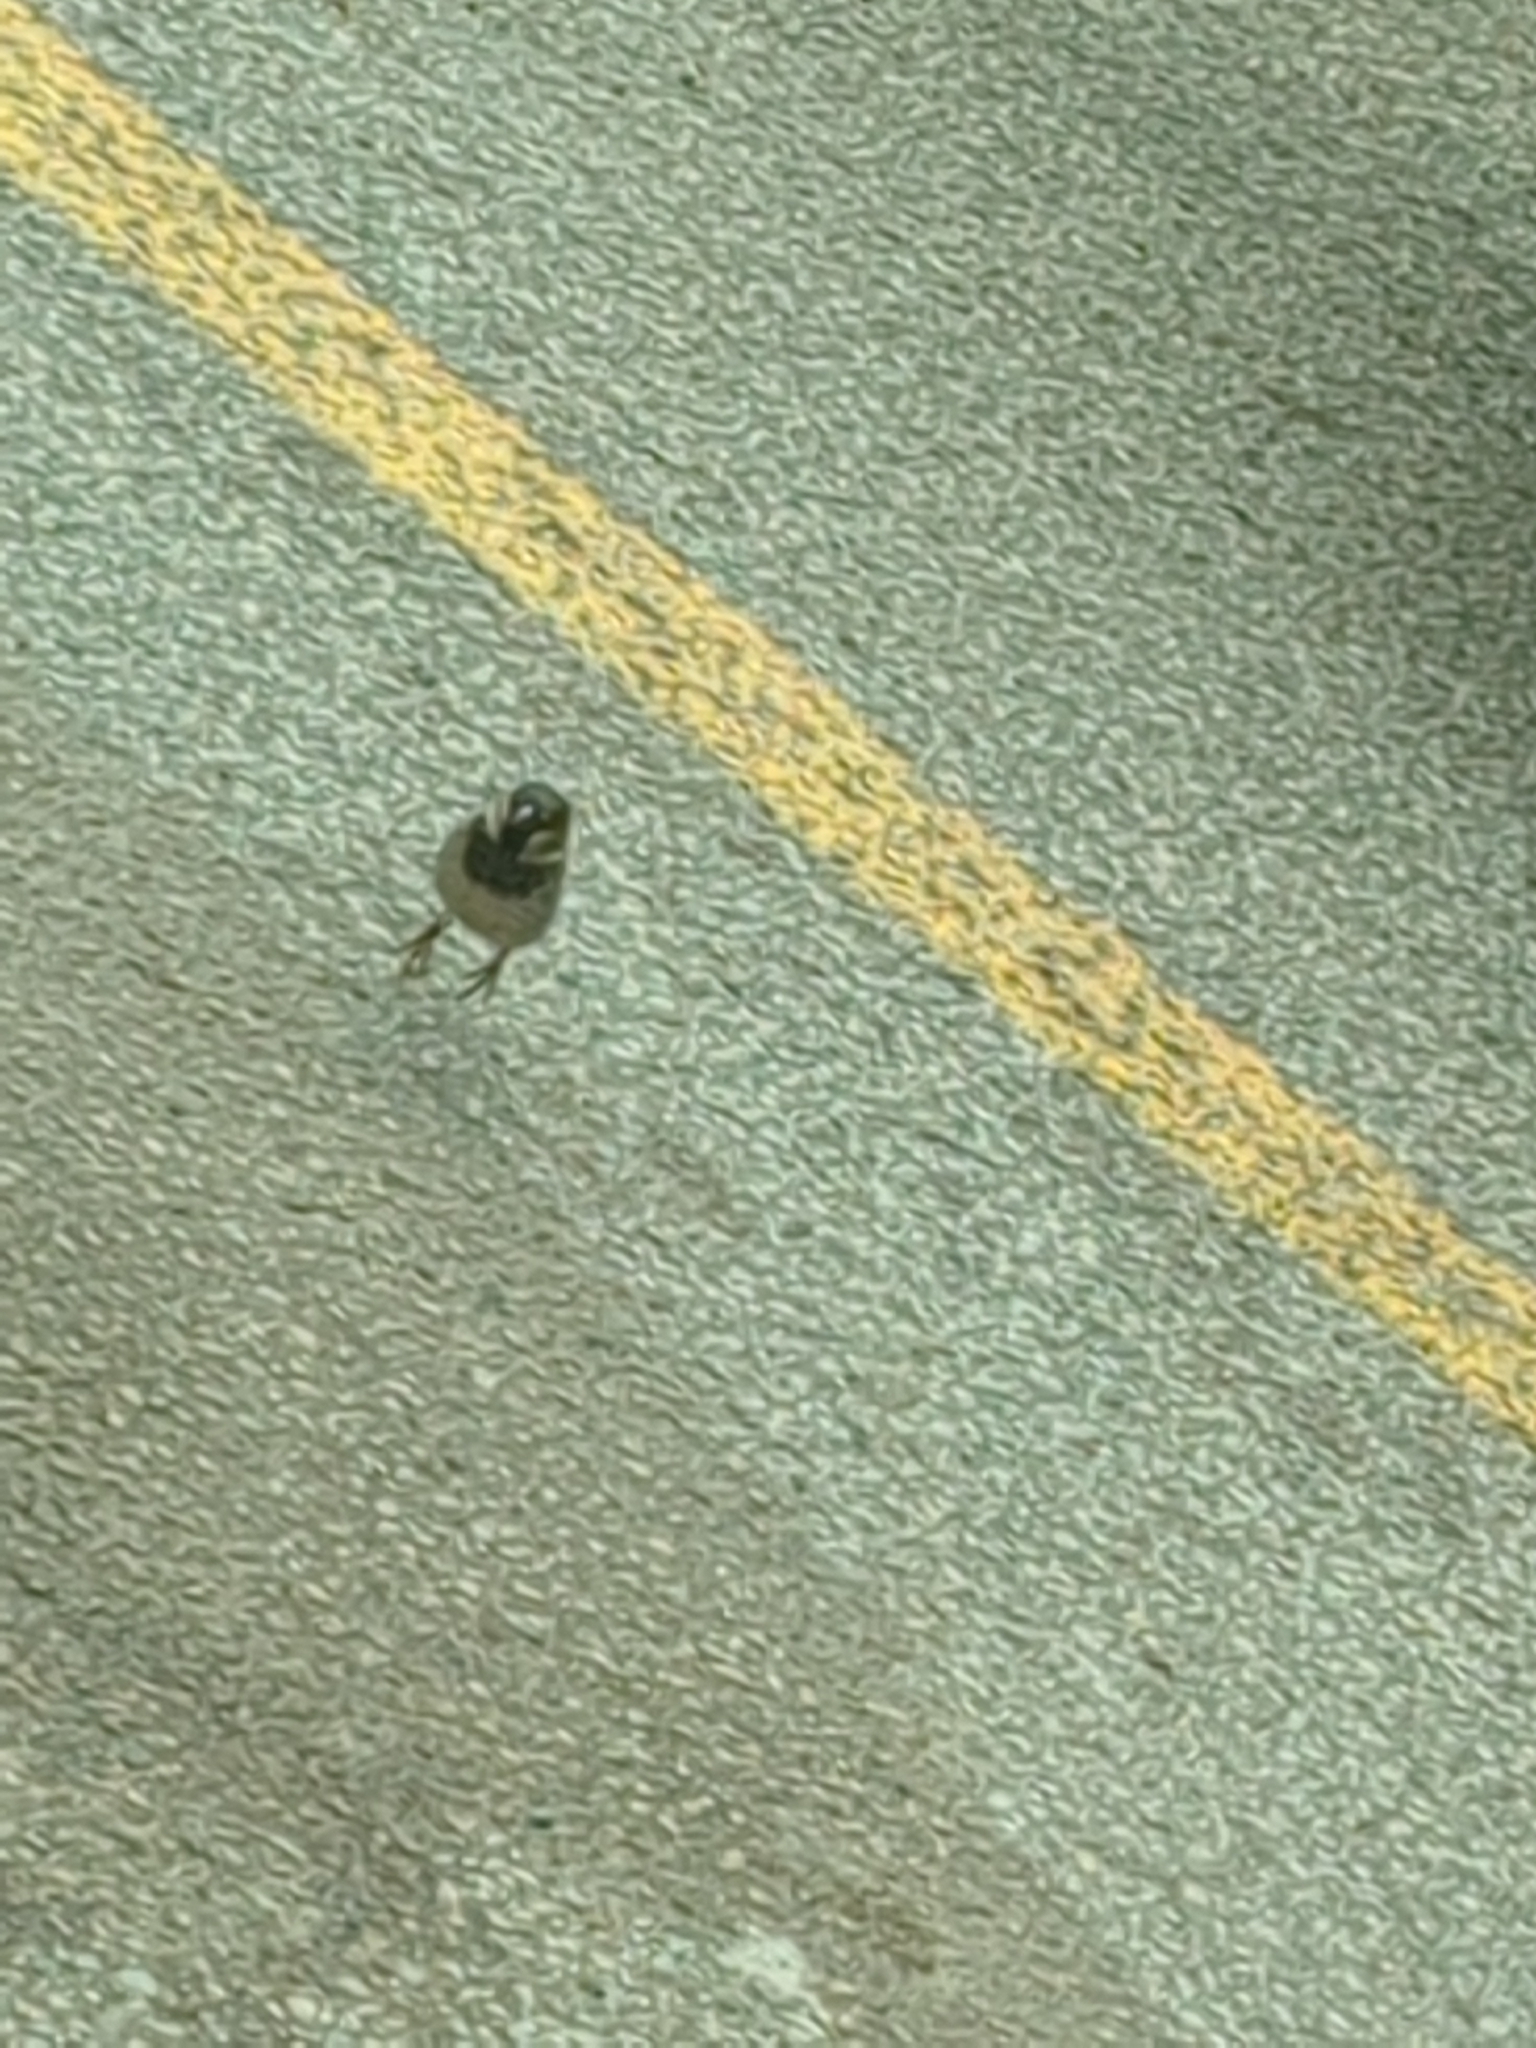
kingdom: Animalia
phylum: Chordata
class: Aves
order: Passeriformes
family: Passeridae
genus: Passer
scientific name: Passer domesticus
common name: House sparrow
